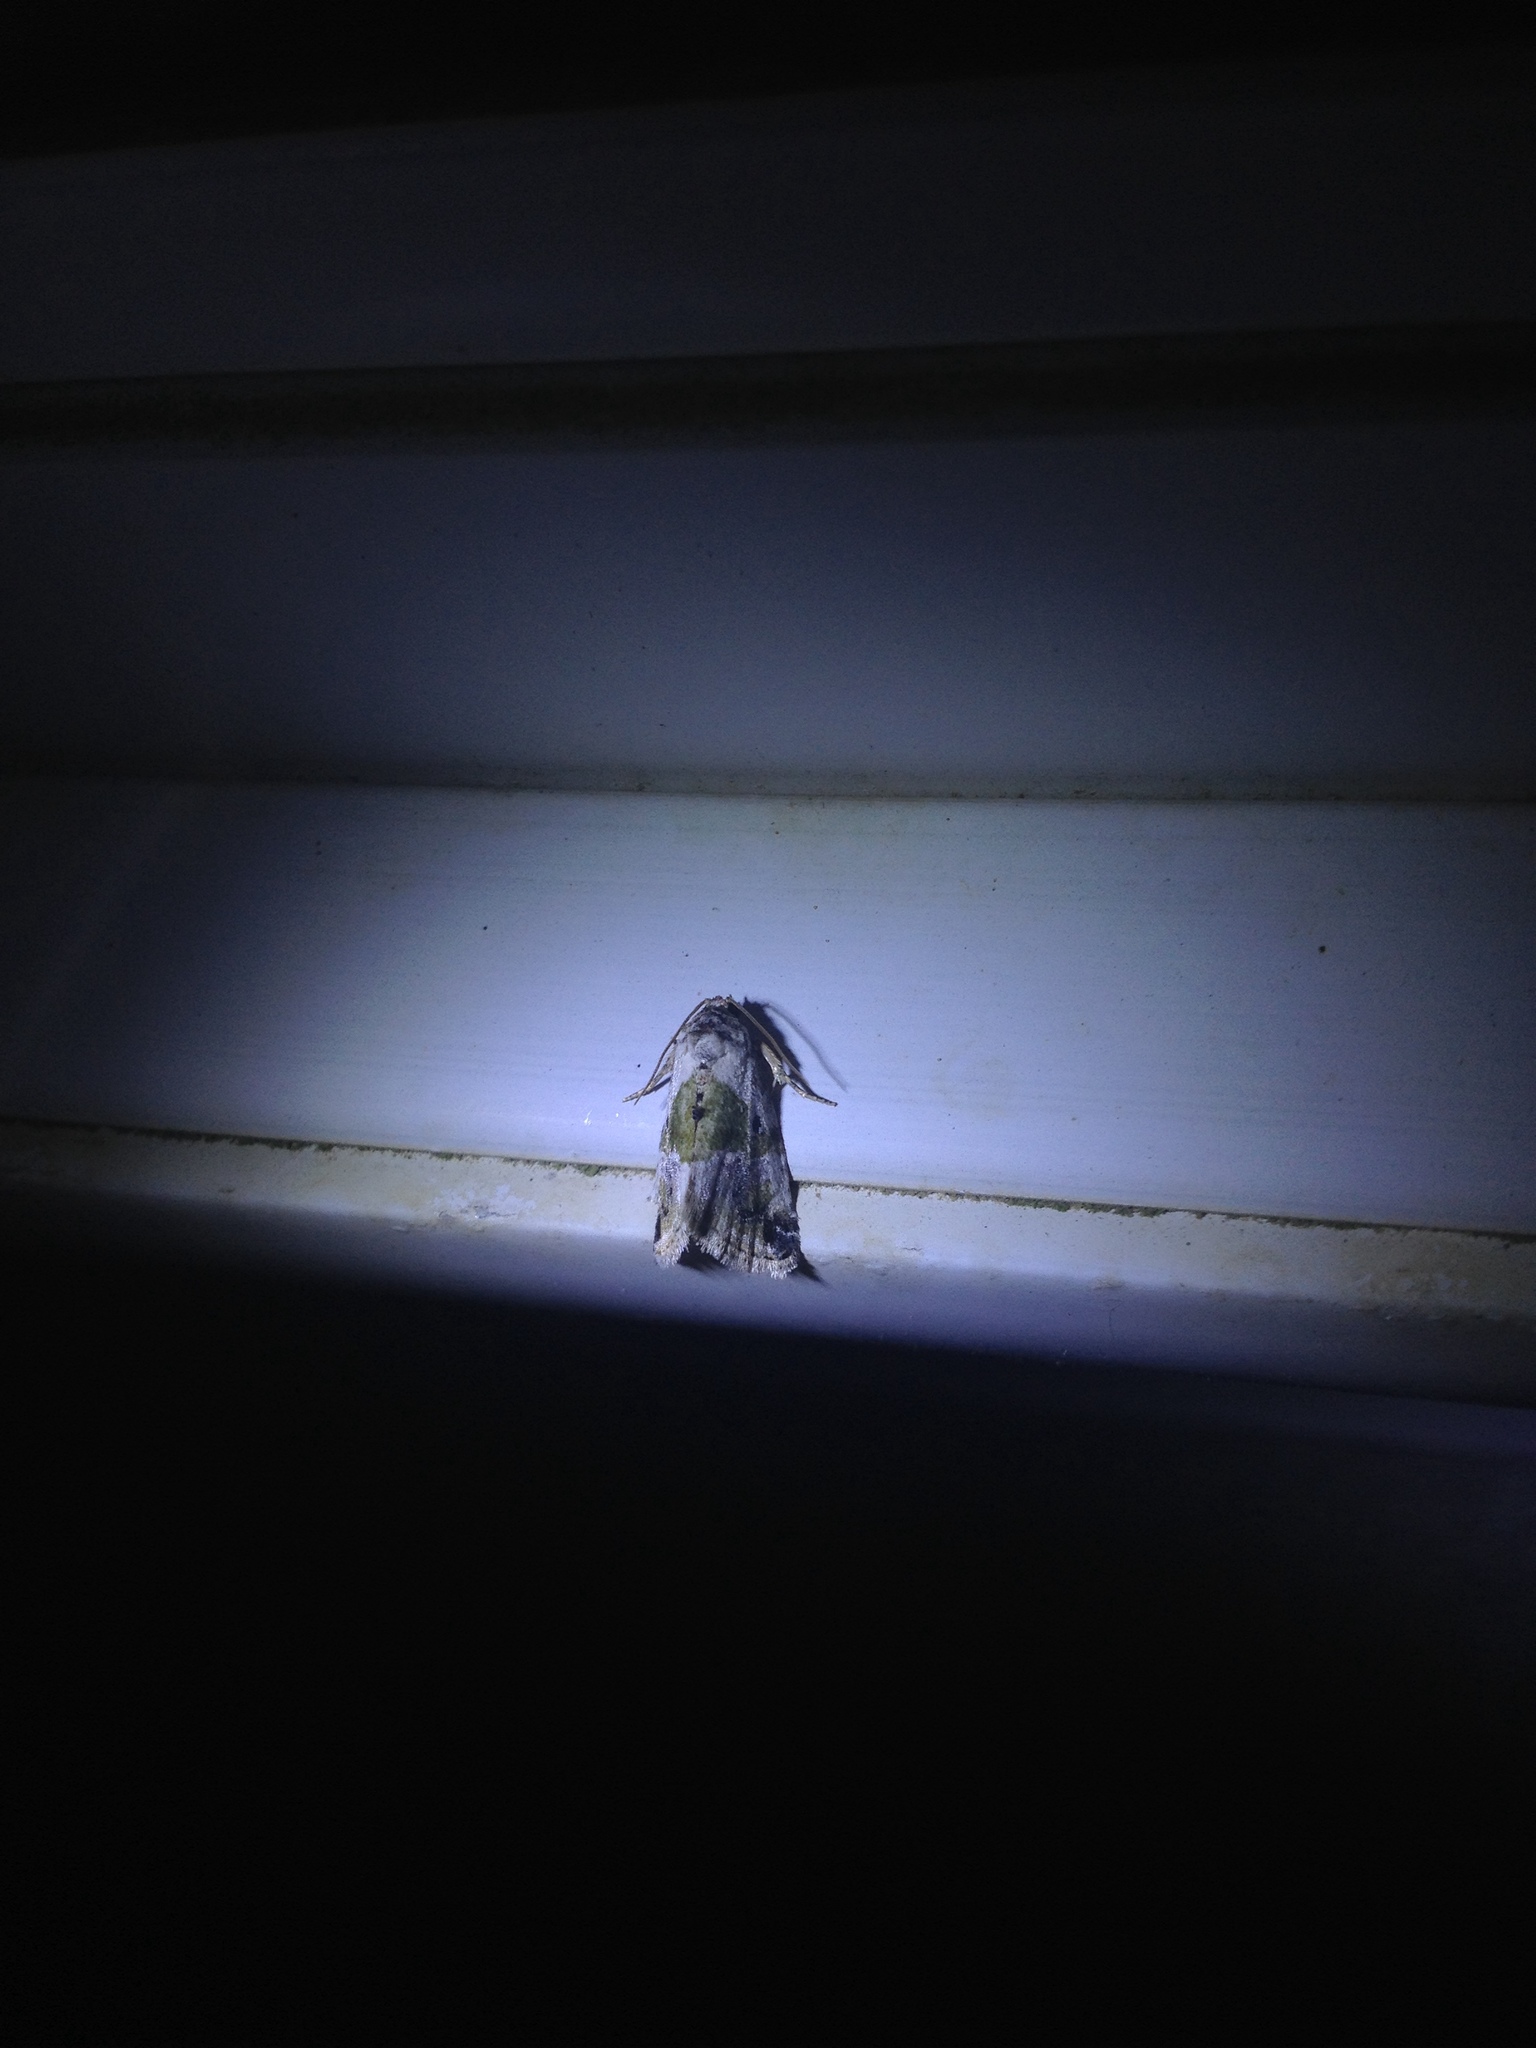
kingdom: Animalia
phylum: Arthropoda
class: Insecta
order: Lepidoptera
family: Noctuidae
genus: Maliattha
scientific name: Maliattha synochitis
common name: Black-dotted glyph
